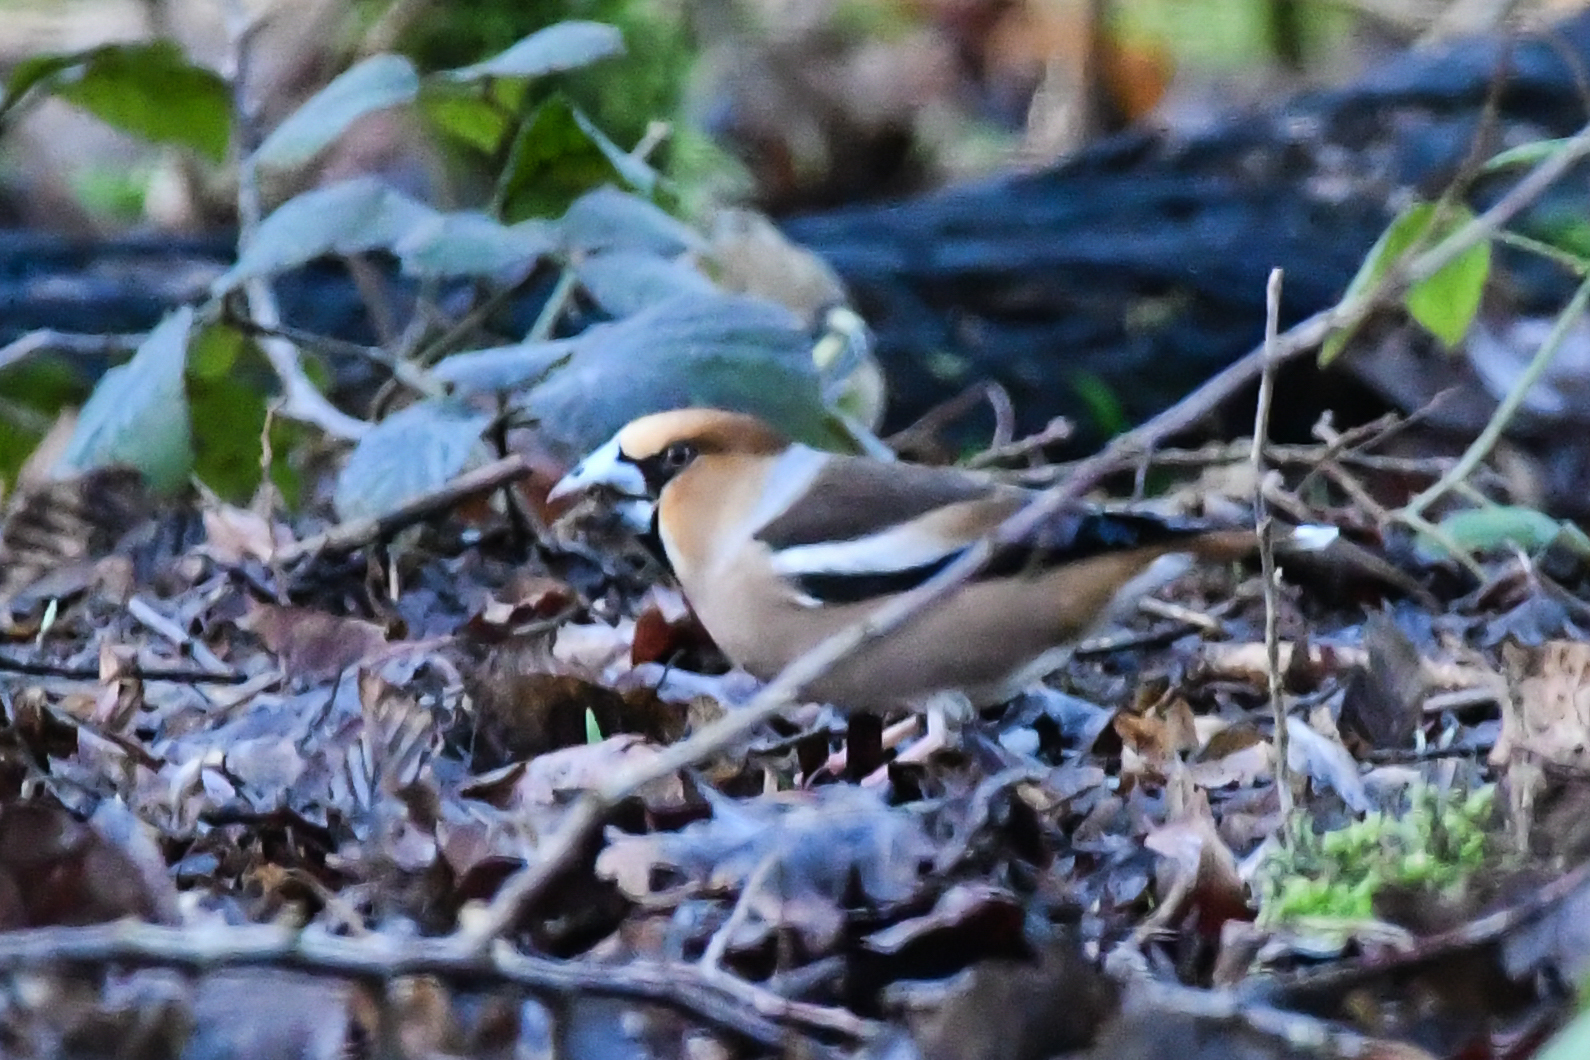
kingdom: Animalia
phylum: Chordata
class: Aves
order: Passeriformes
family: Fringillidae
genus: Coccothraustes
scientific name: Coccothraustes coccothraustes
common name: Hawfinch
